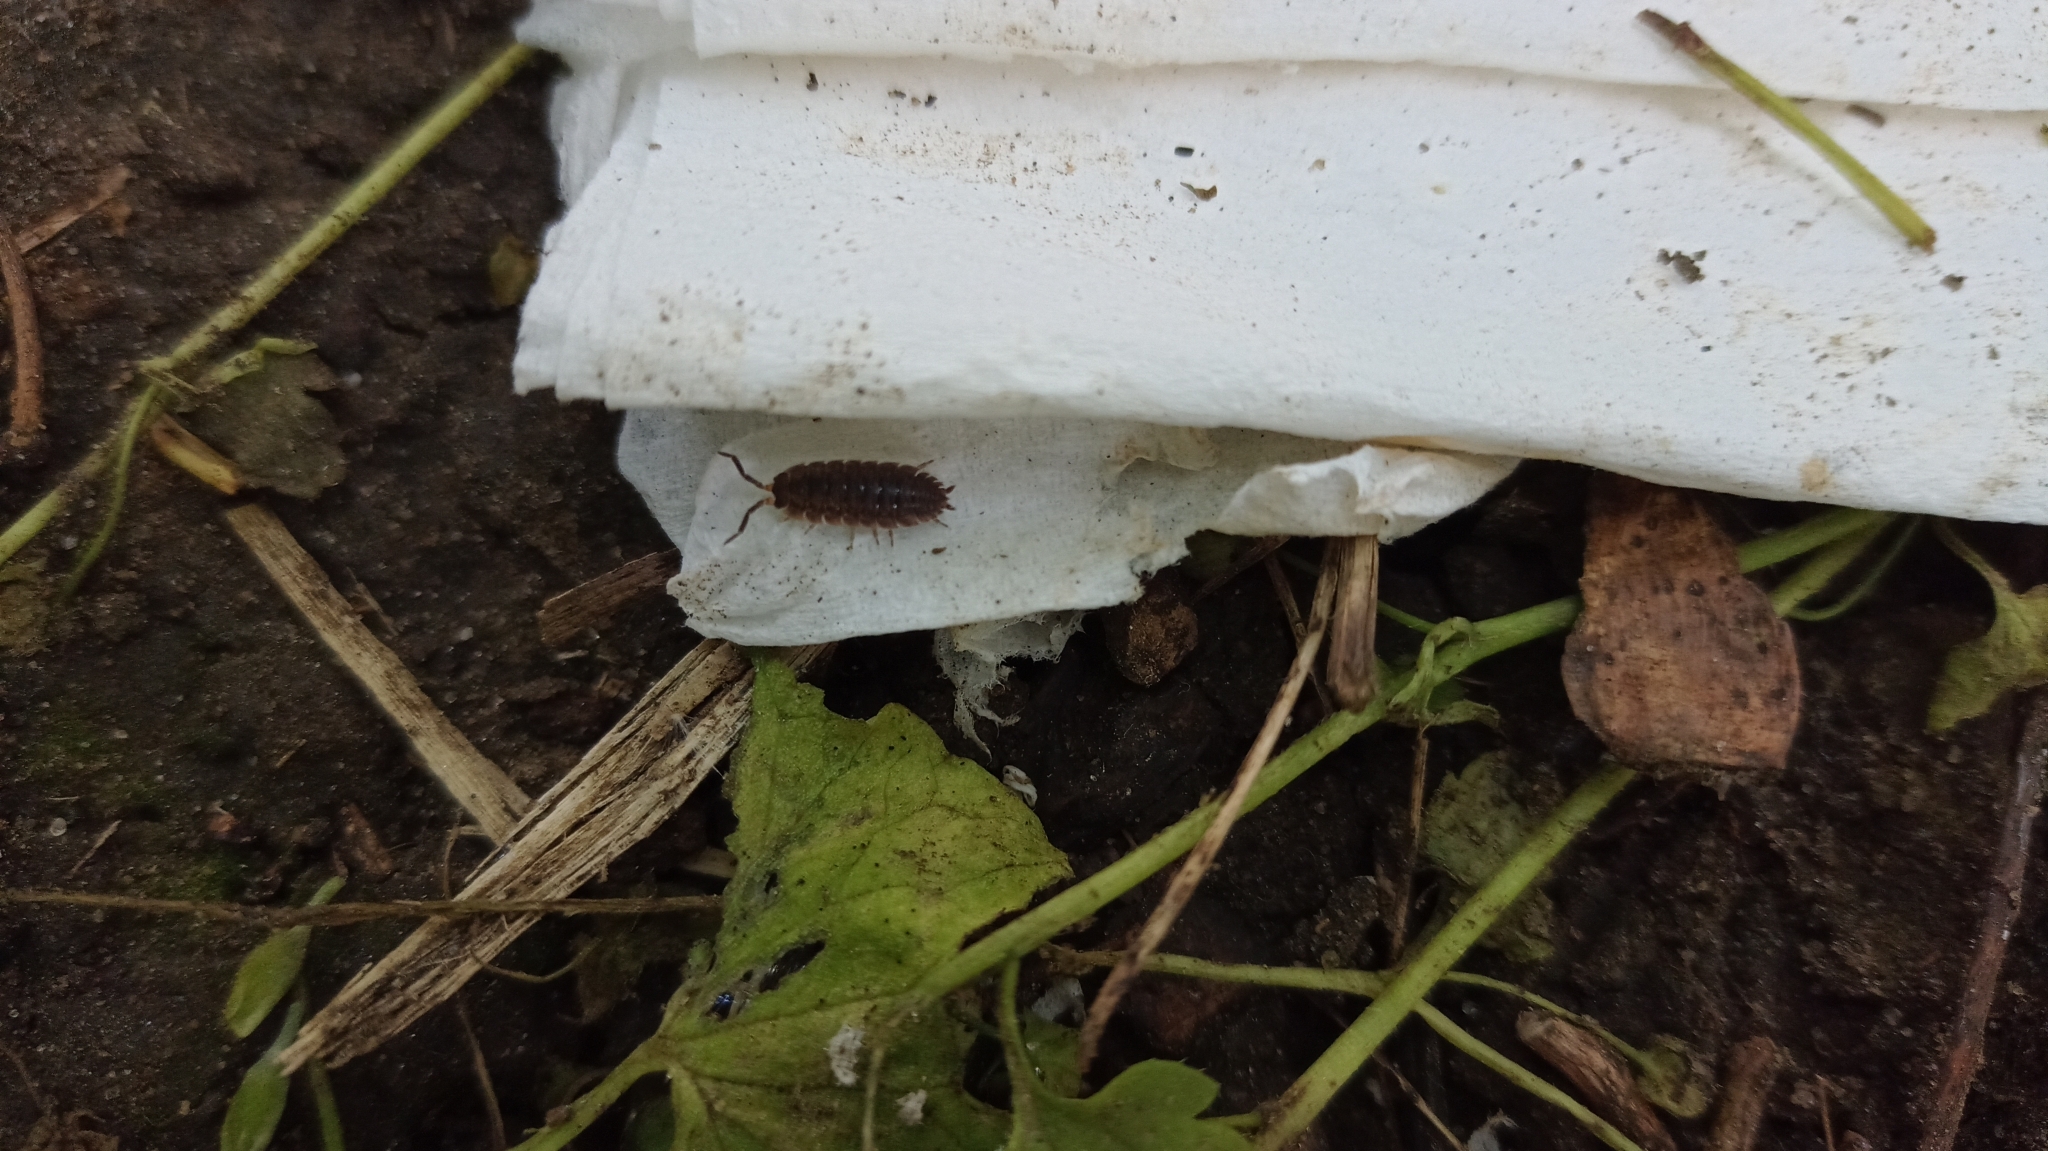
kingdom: Animalia
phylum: Arthropoda
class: Malacostraca
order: Isopoda
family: Porcellionidae
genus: Porcellio
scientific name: Porcellio scaber
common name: Common rough woodlouse
